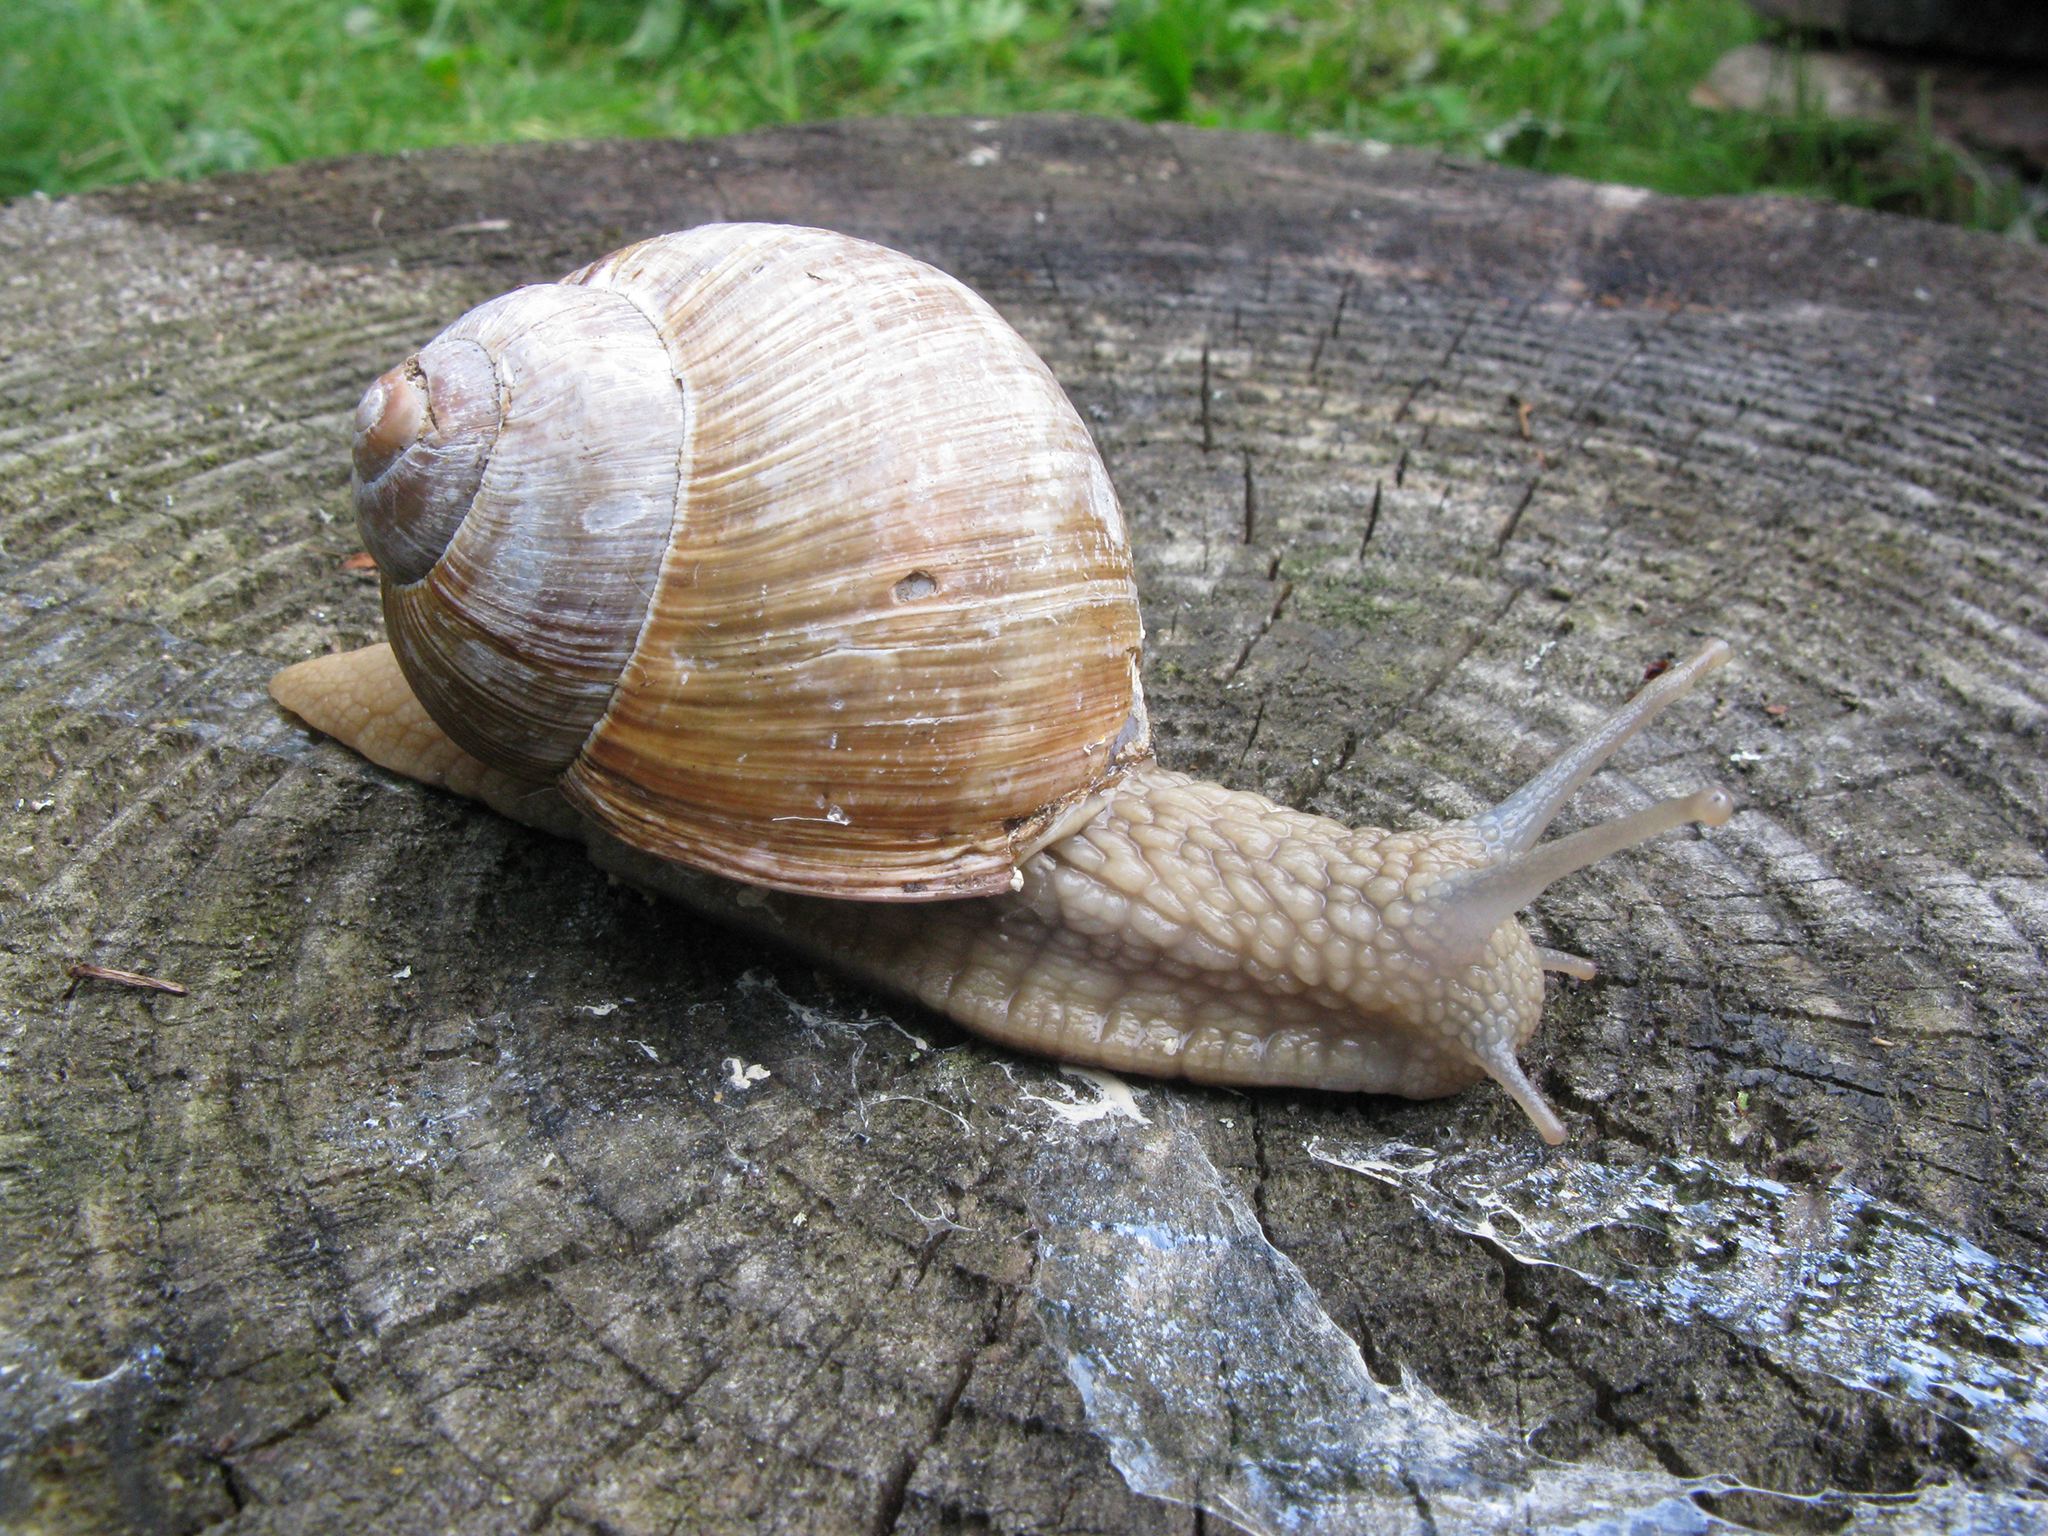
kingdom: Animalia
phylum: Mollusca
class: Gastropoda
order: Stylommatophora
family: Helicidae
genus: Helix
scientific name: Helix pomatia
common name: Roman snail
